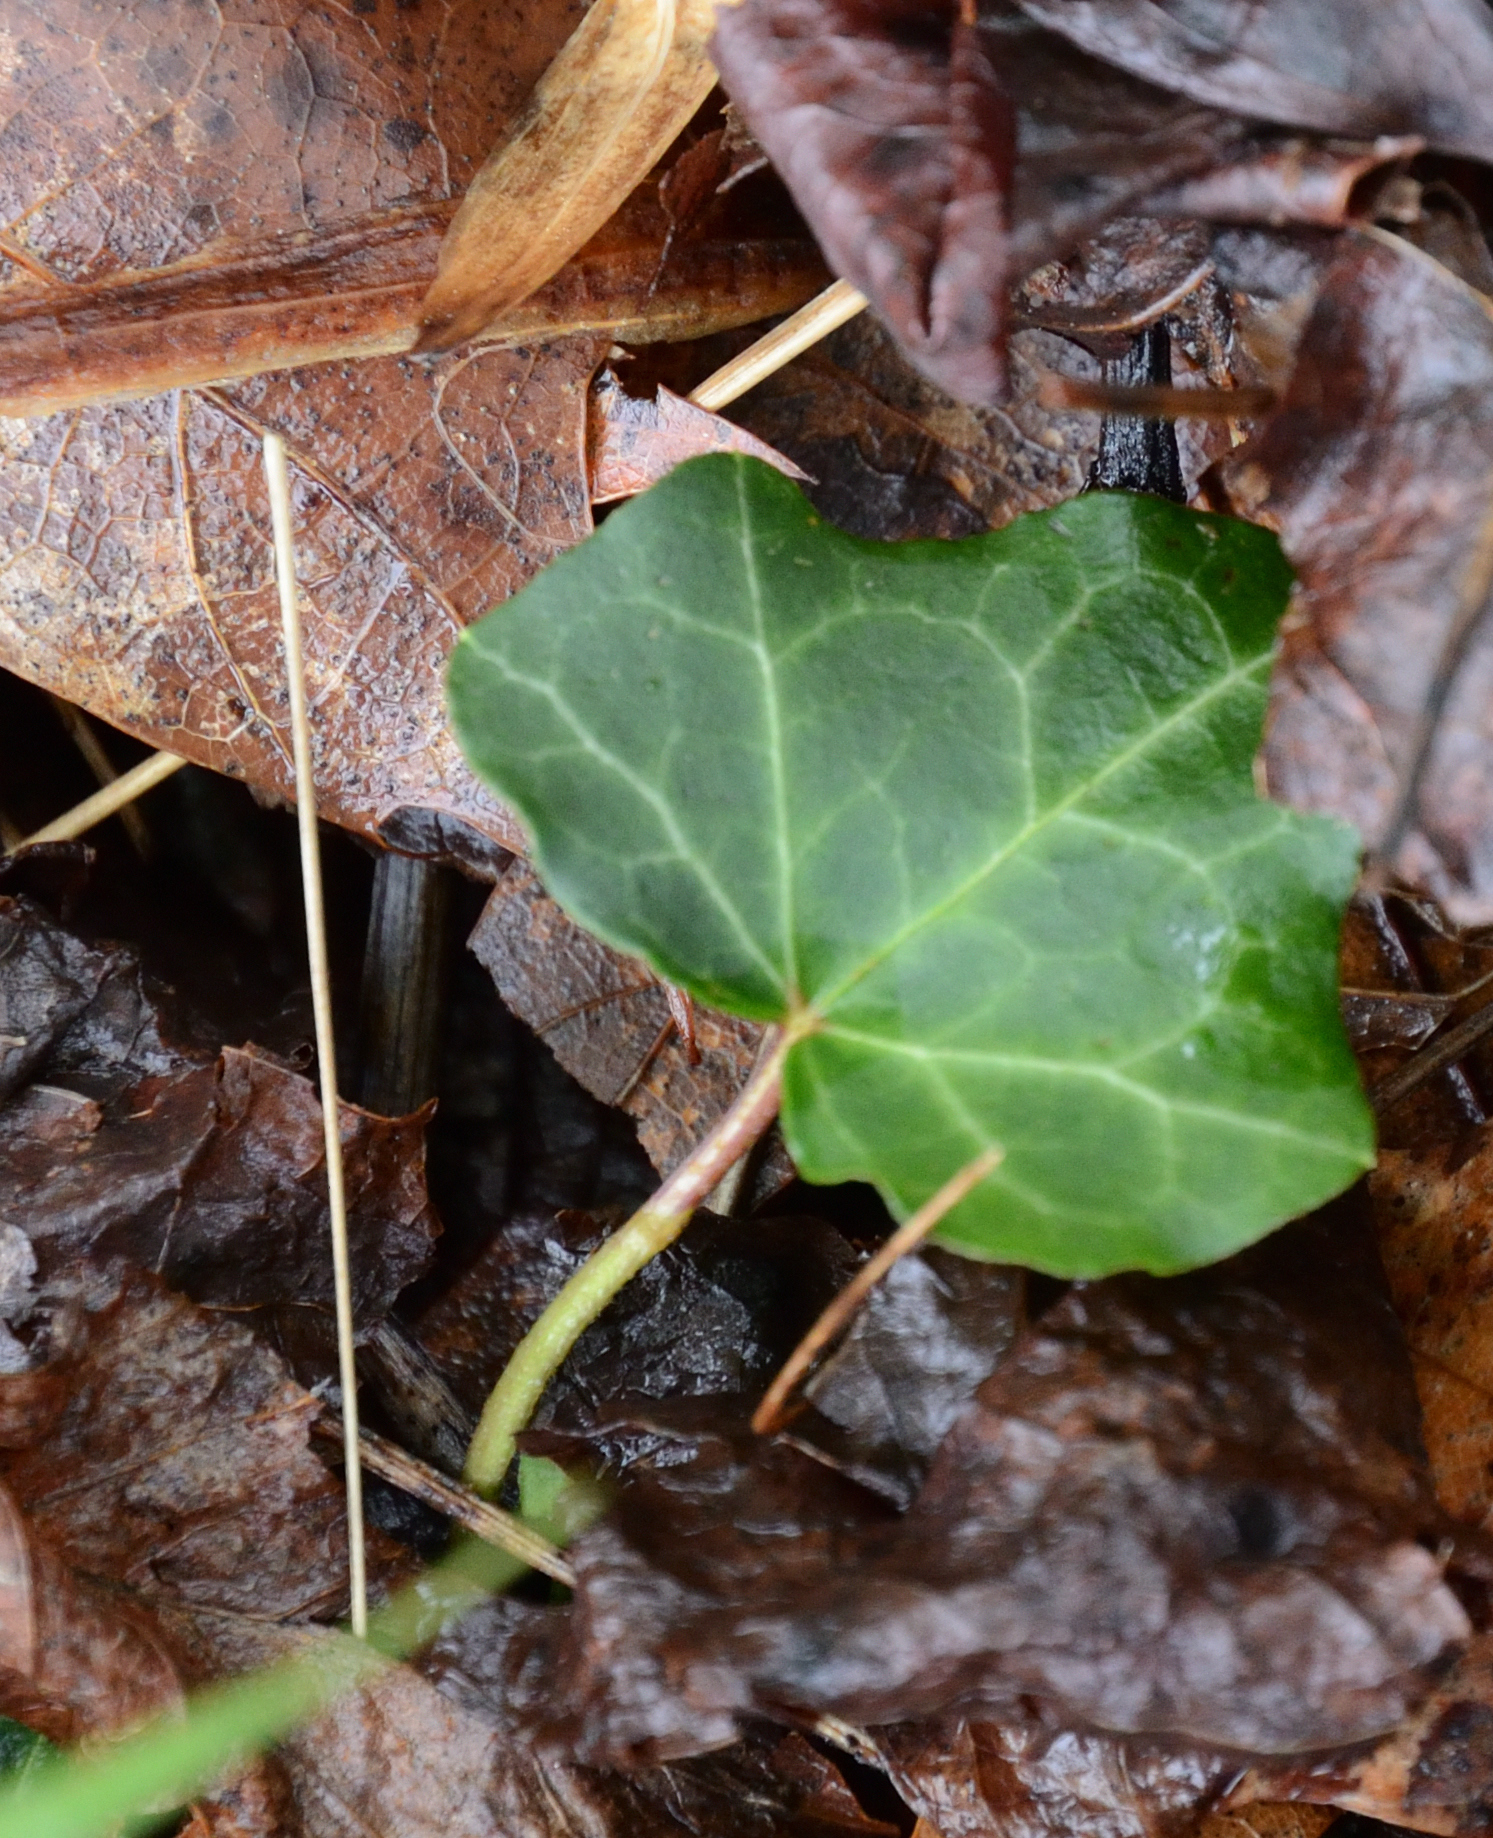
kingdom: Plantae
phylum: Tracheophyta
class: Magnoliopsida
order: Apiales
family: Araliaceae
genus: Hedera
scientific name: Hedera helix
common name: Ivy
